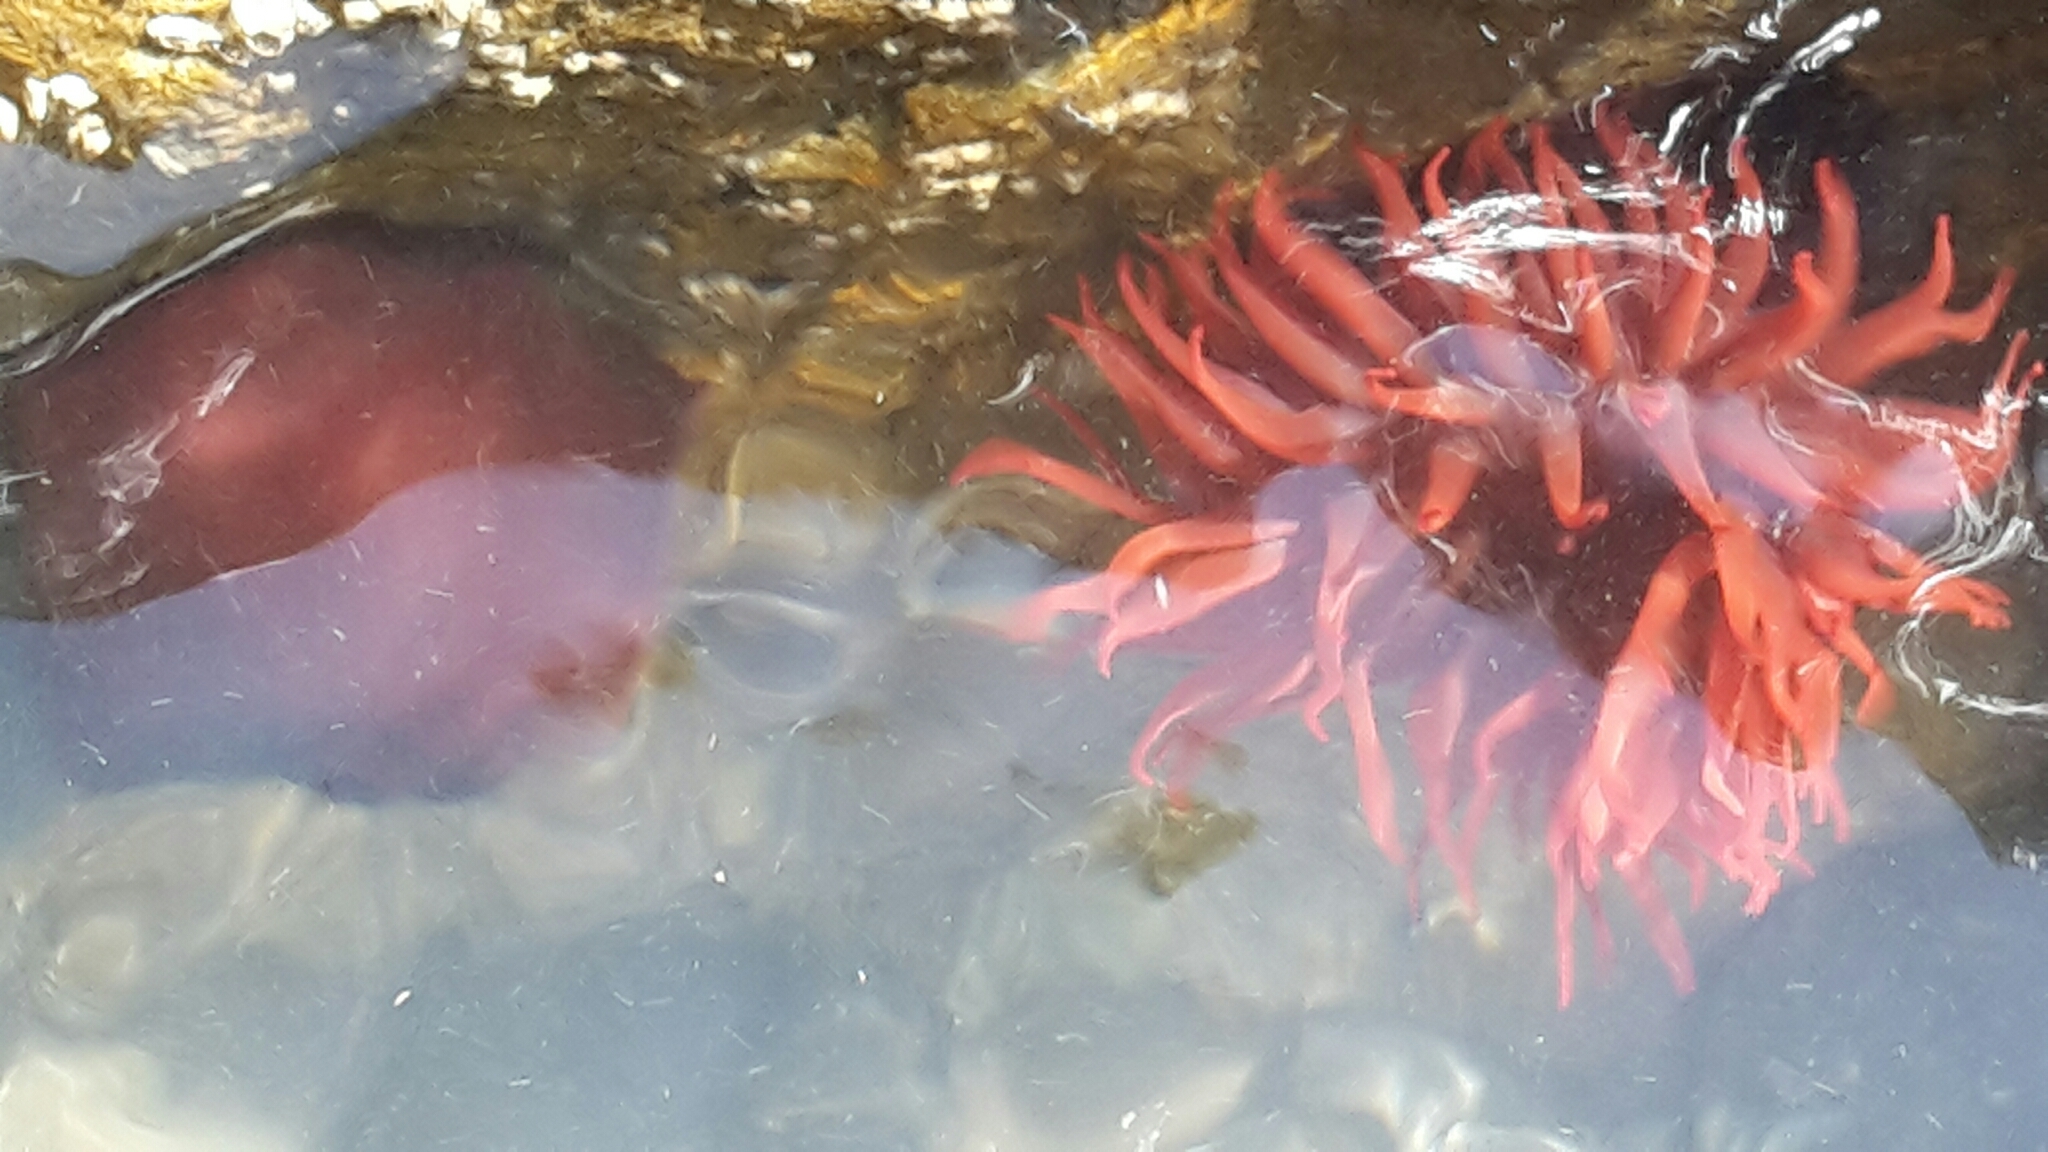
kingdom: Animalia
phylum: Cnidaria
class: Anthozoa
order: Actiniaria
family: Actiniidae
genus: Actinia
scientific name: Actinia tenebrosa
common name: Waratah anemone
